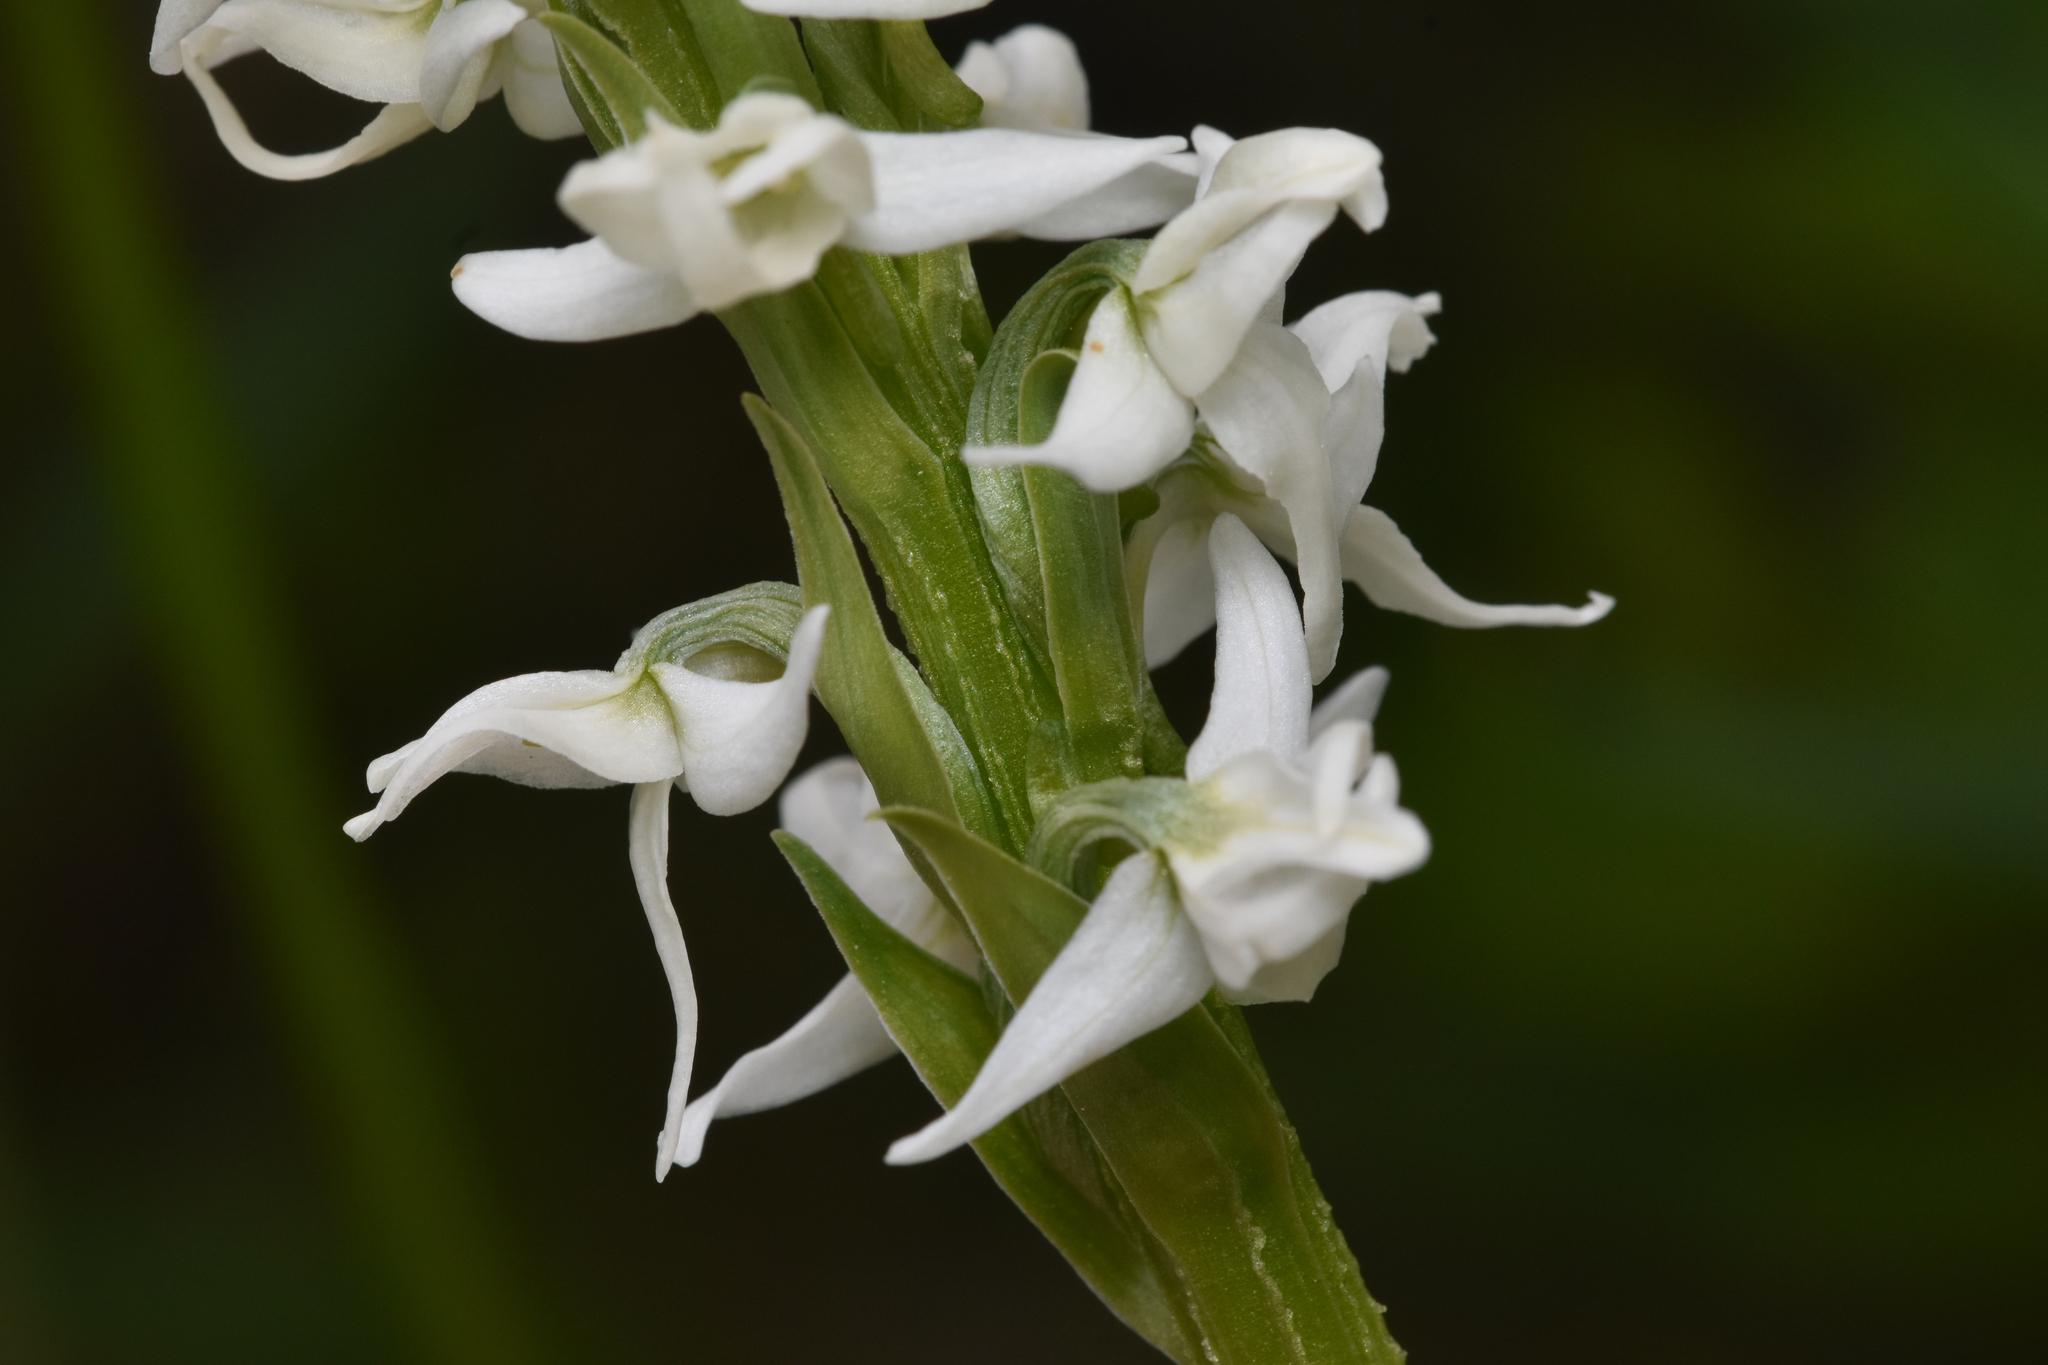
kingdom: Plantae
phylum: Tracheophyta
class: Liliopsida
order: Asparagales
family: Orchidaceae
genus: Platanthera
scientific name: Platanthera dilatata
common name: Bog candles
